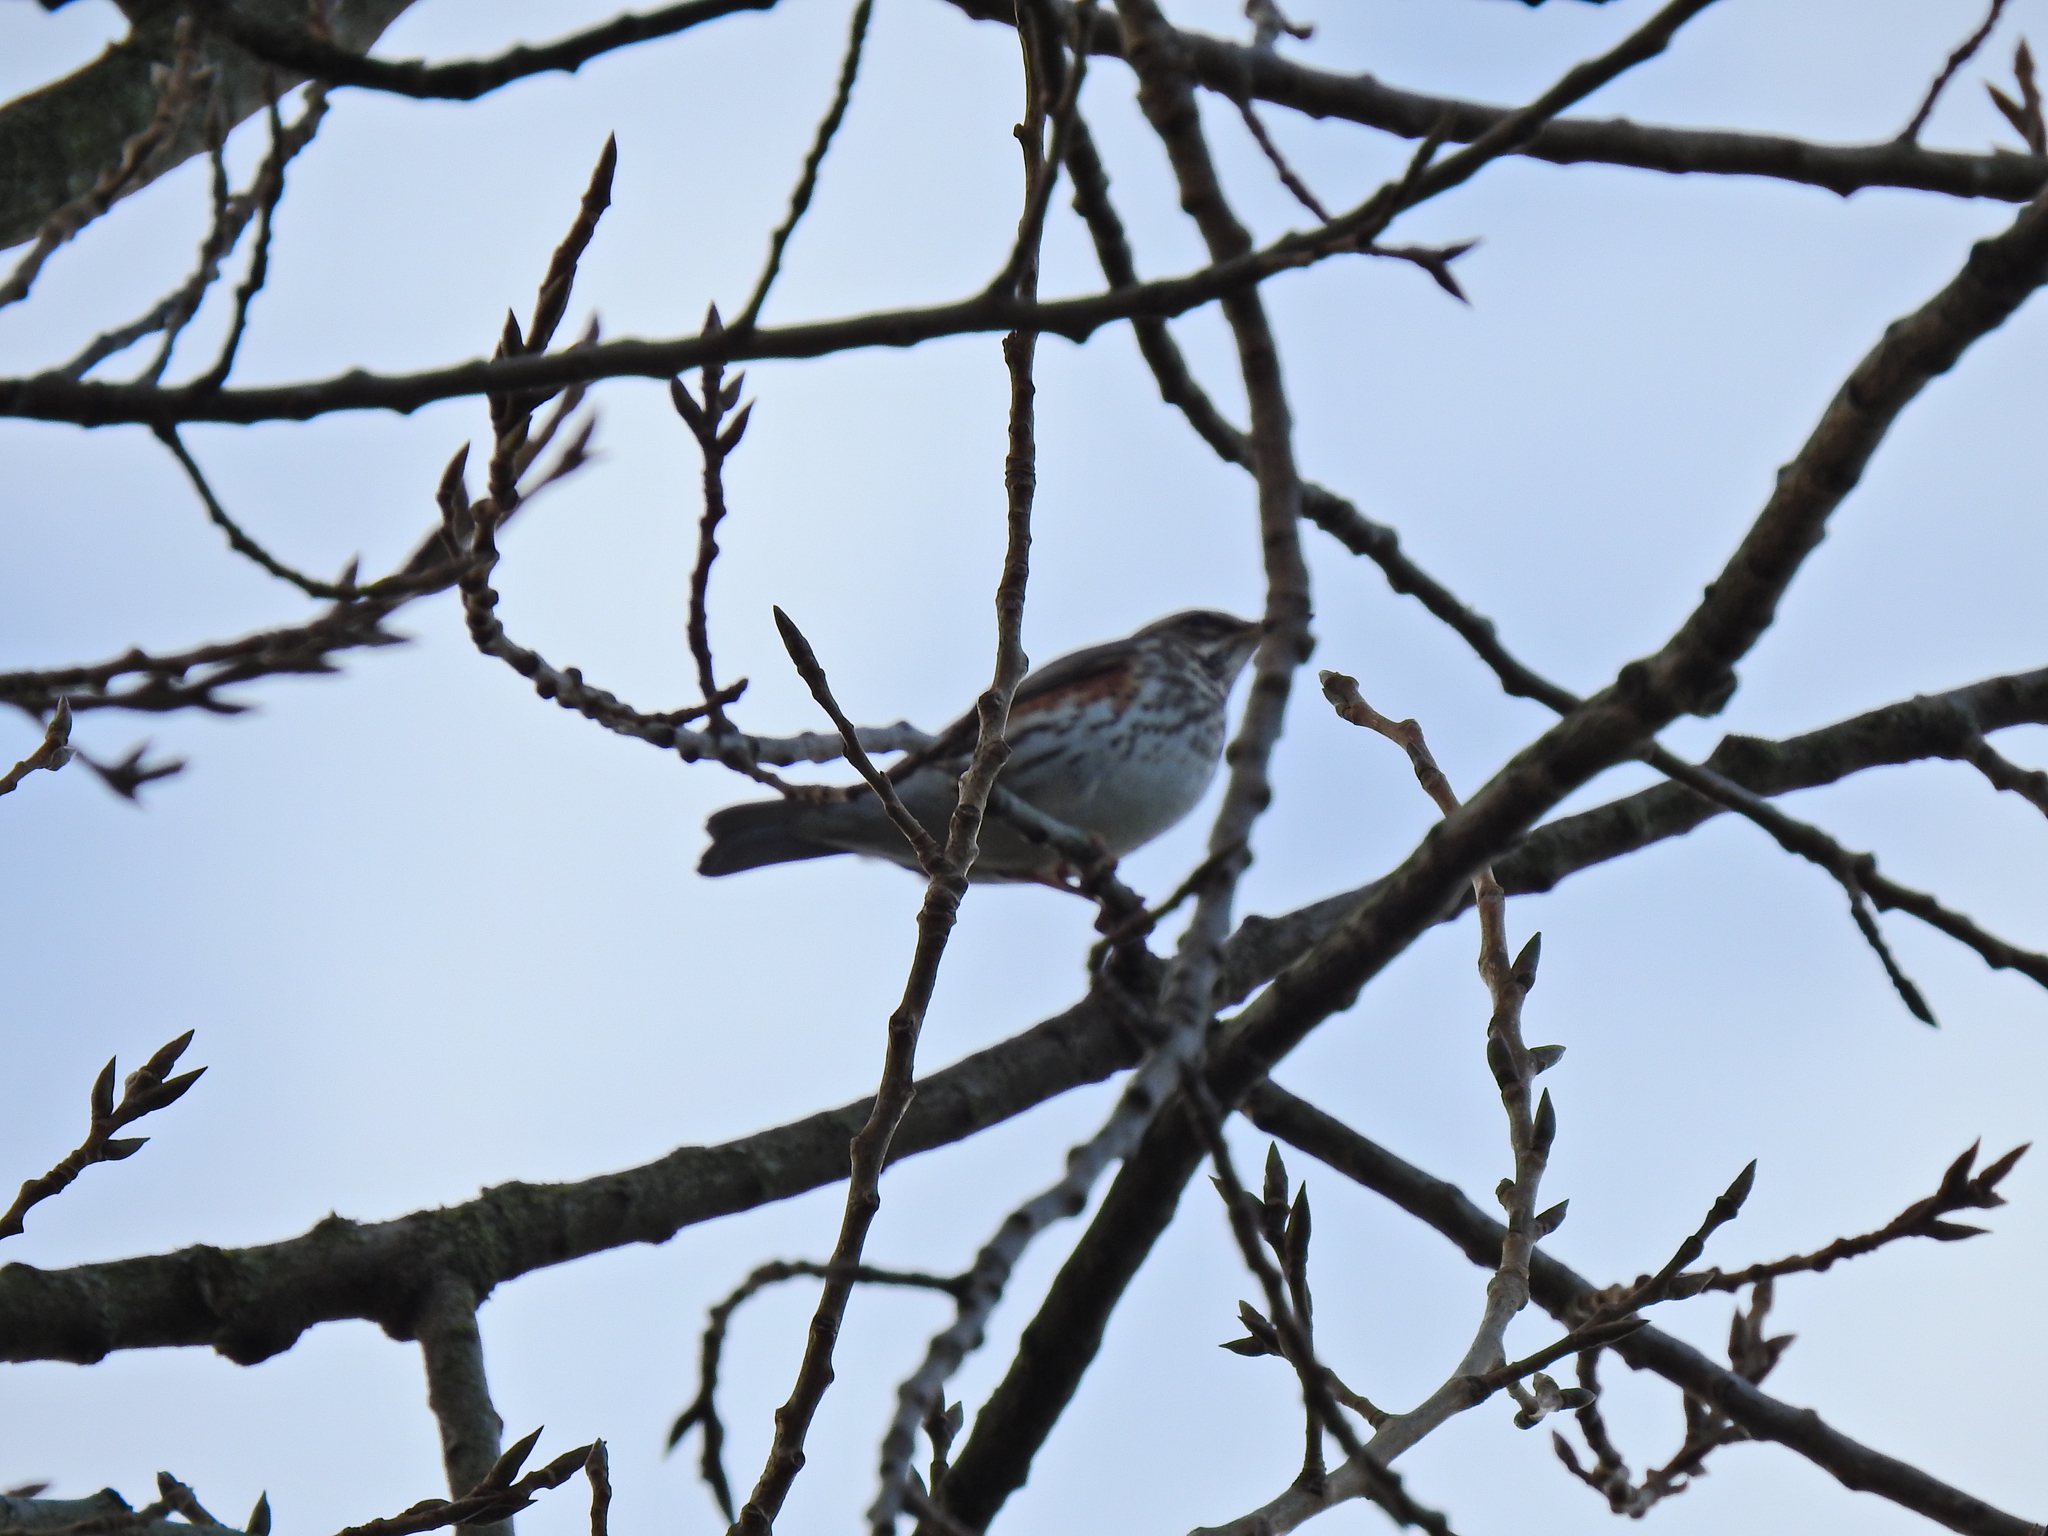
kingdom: Animalia
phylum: Chordata
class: Aves
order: Passeriformes
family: Turdidae
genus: Turdus
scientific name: Turdus iliacus
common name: Redwing
